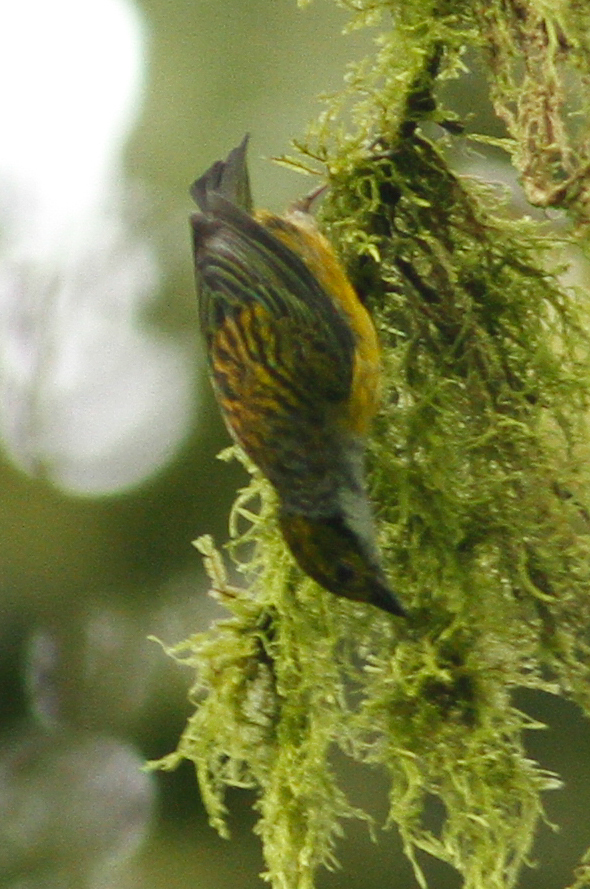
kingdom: Animalia
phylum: Chordata
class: Aves
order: Passeriformes
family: Thraupidae
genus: Tangara
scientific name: Tangara icterocephala
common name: Silver-throated tanager
